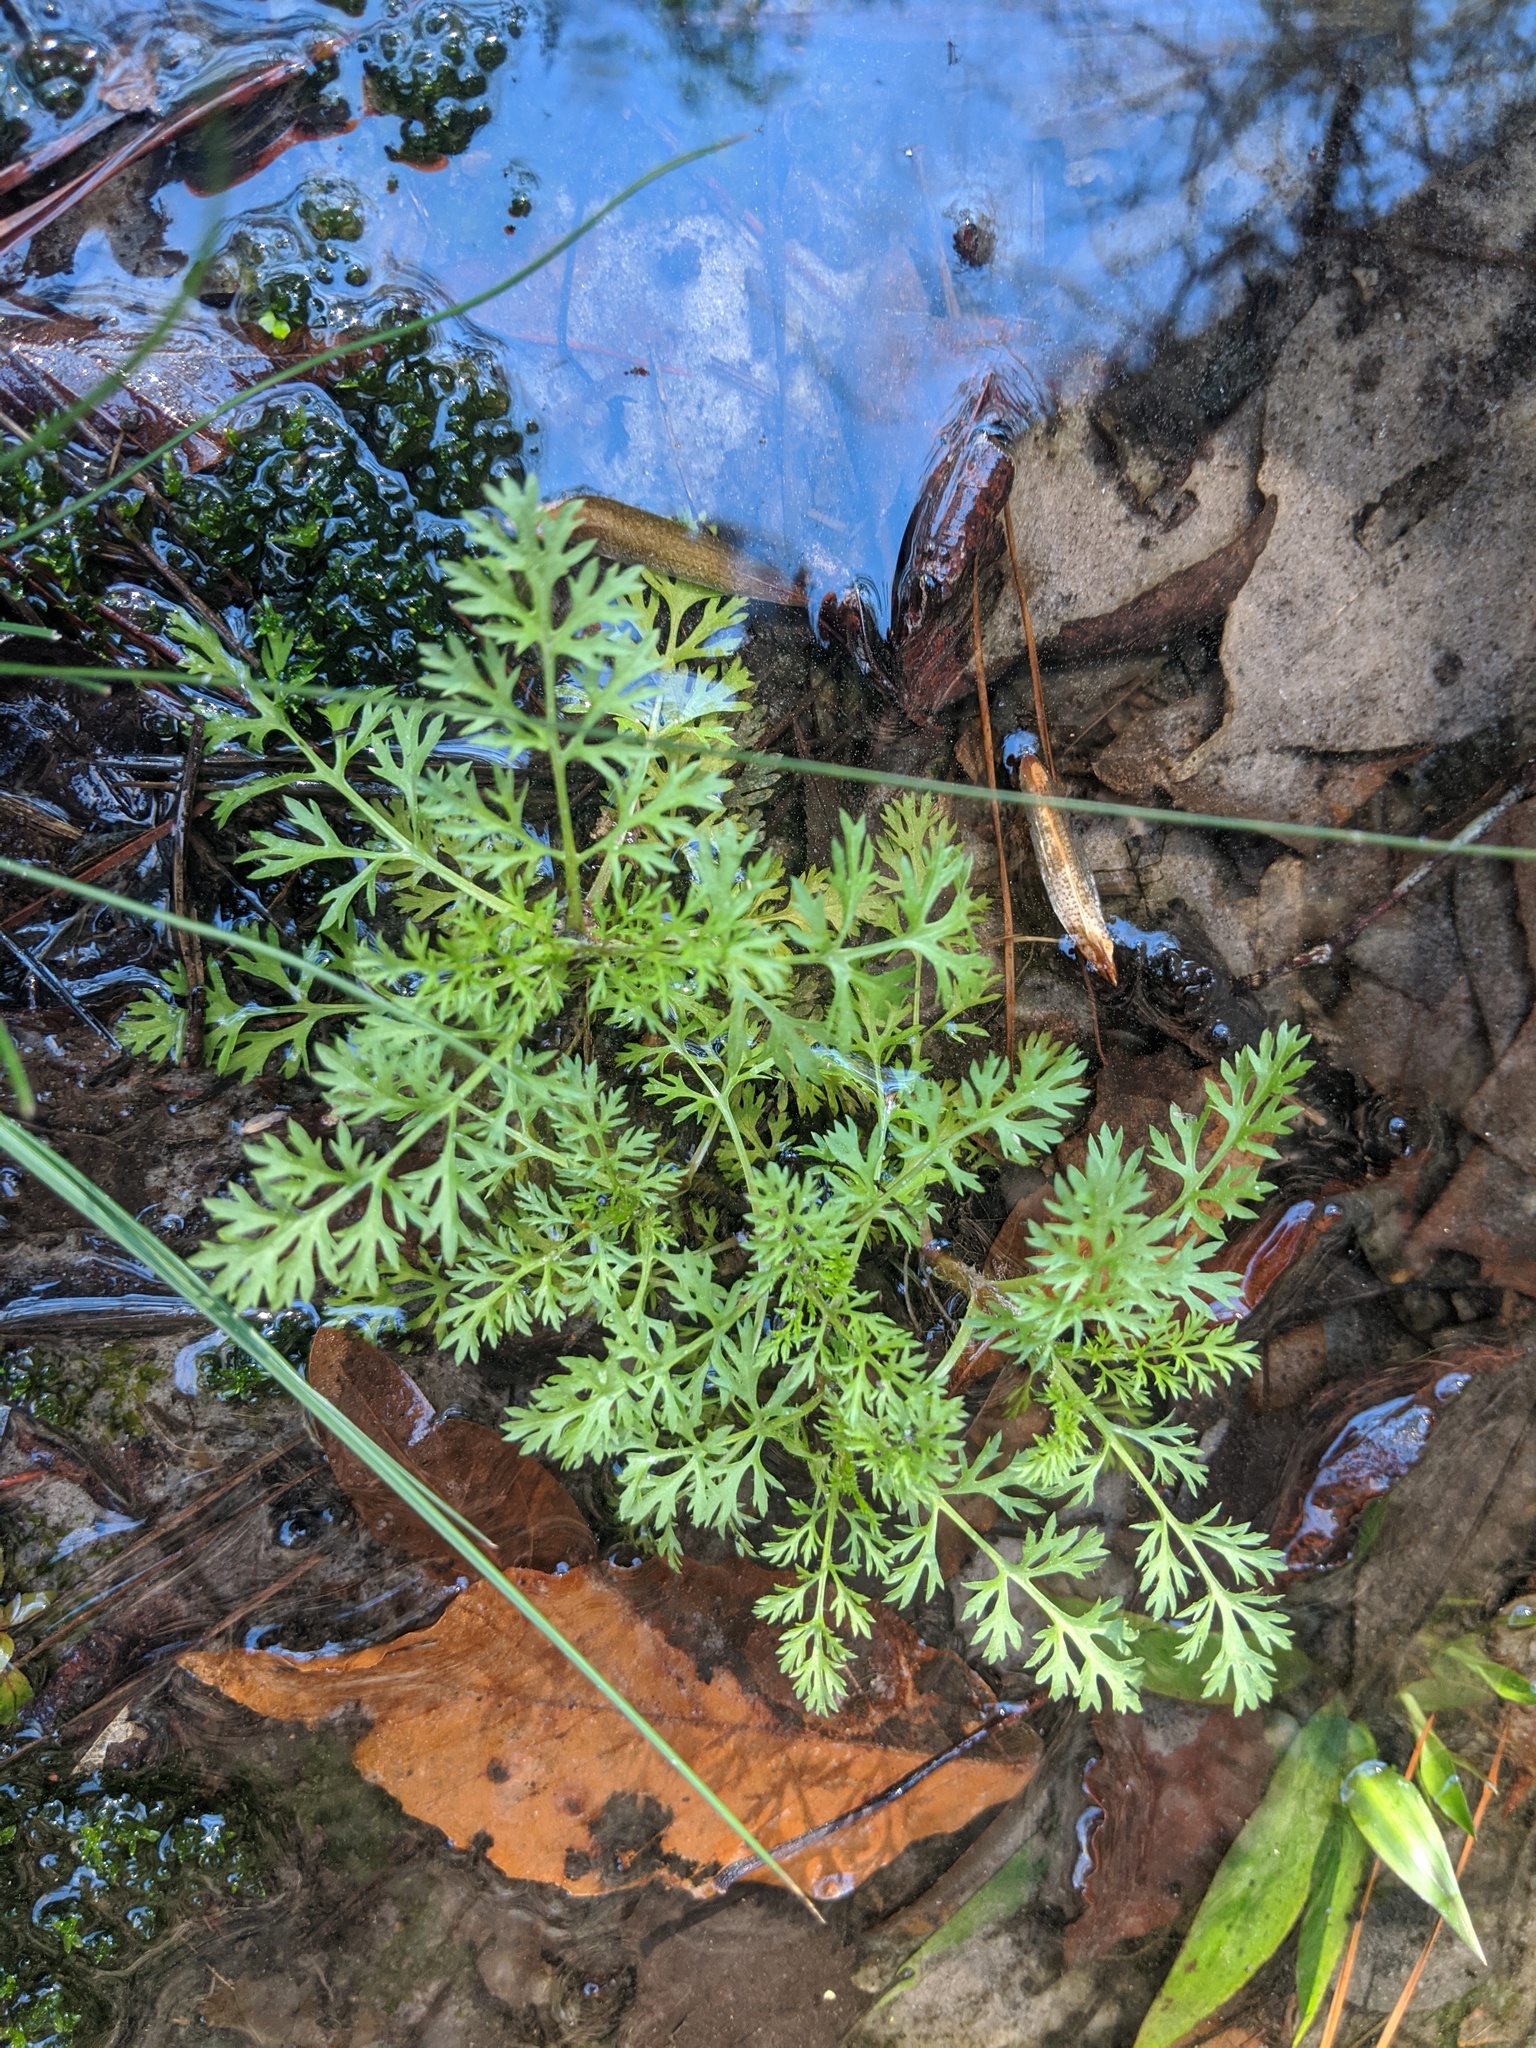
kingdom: Plantae
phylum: Tracheophyta
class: Magnoliopsida
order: Asterales
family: Asteraceae
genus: Soliva
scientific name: Soliva sessilis
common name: Field burrweed
